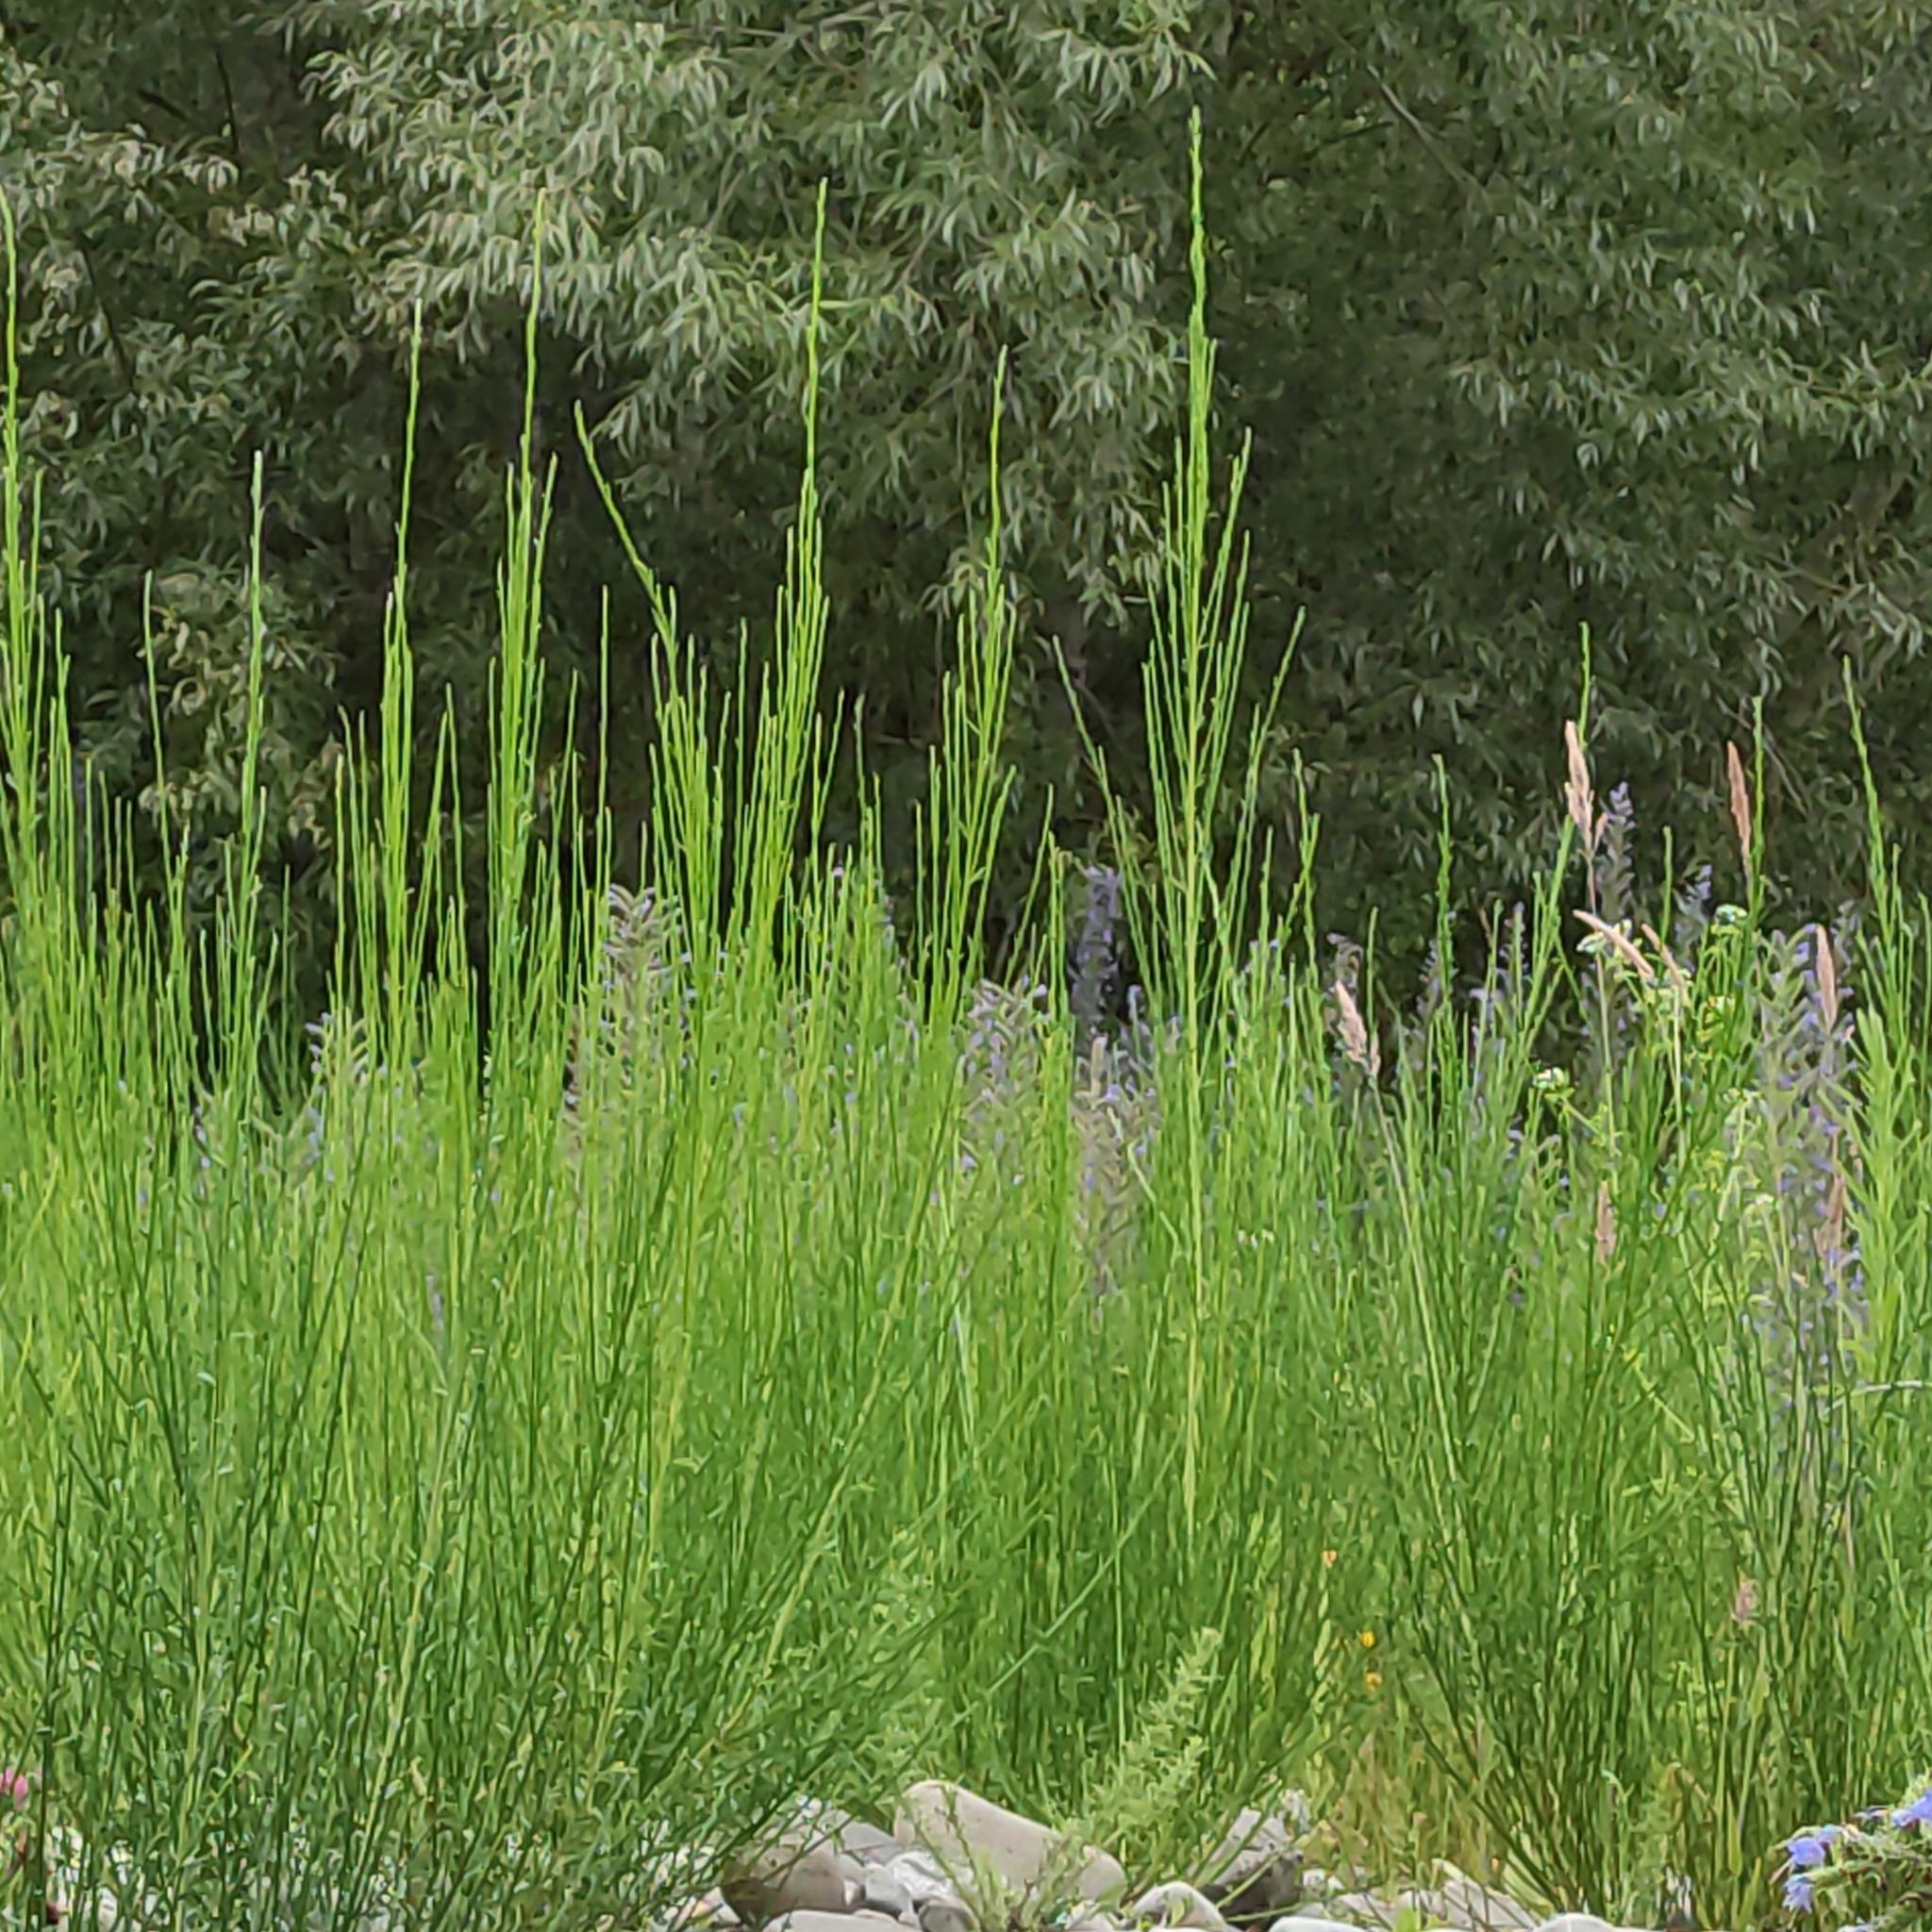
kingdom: Plantae
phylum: Tracheophyta
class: Magnoliopsida
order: Fabales
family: Fabaceae
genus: Cytisus
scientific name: Cytisus scoparius
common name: Scotch broom
